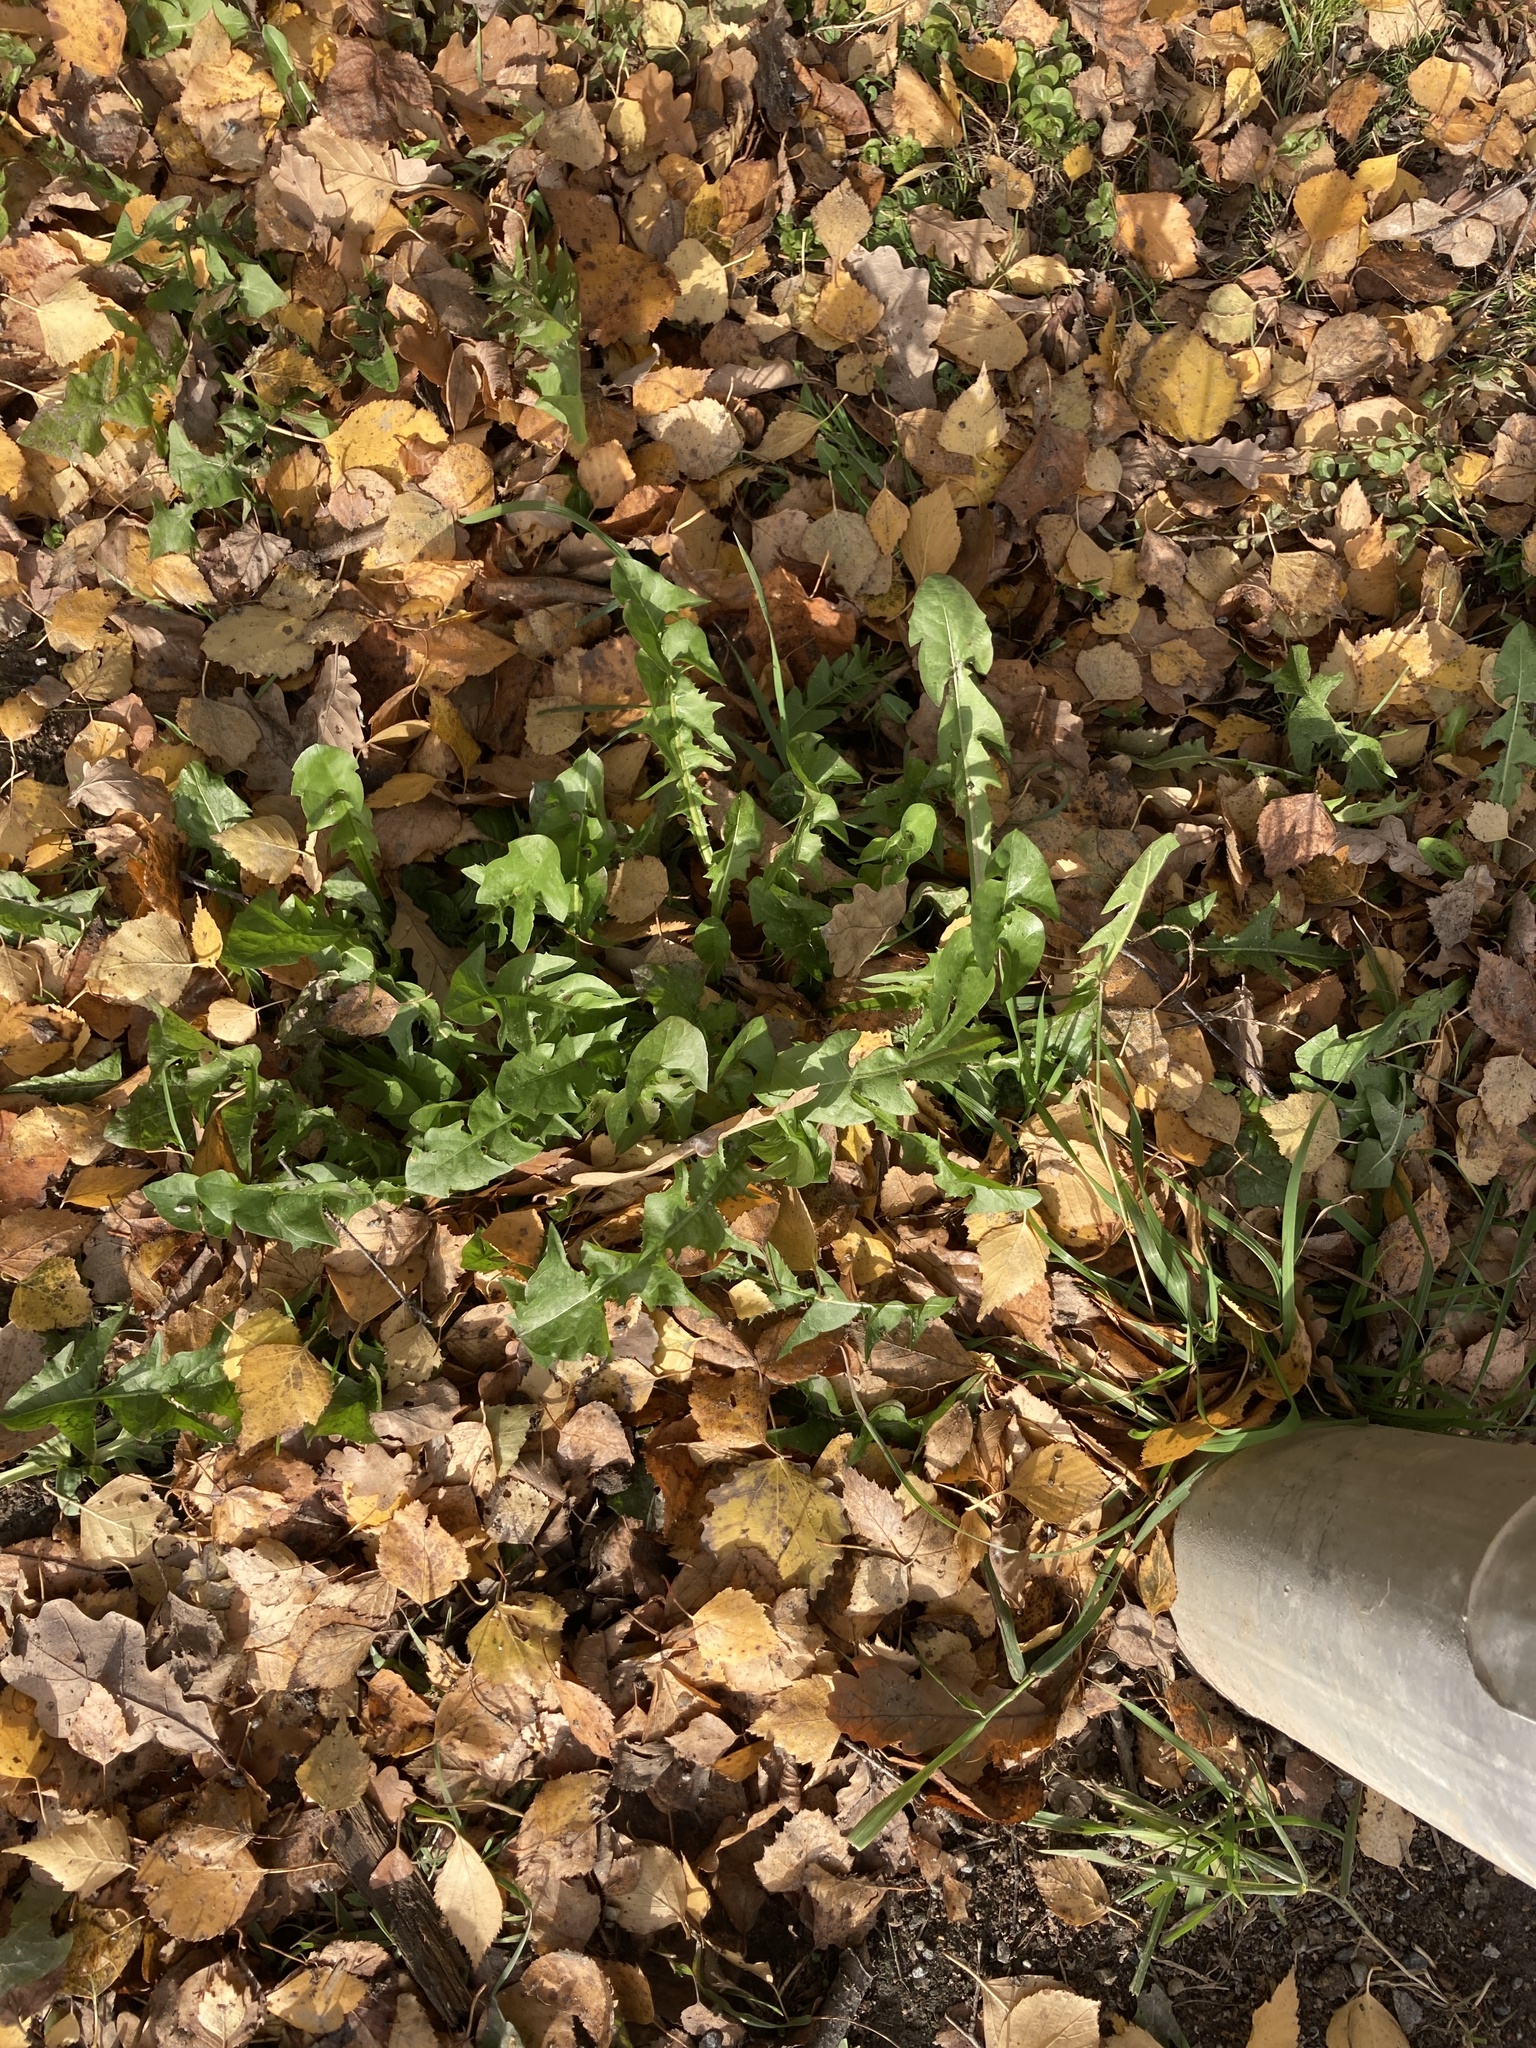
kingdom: Plantae
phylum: Tracheophyta
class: Magnoliopsida
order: Asterales
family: Asteraceae
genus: Taraxacum
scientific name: Taraxacum officinale
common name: Common dandelion
